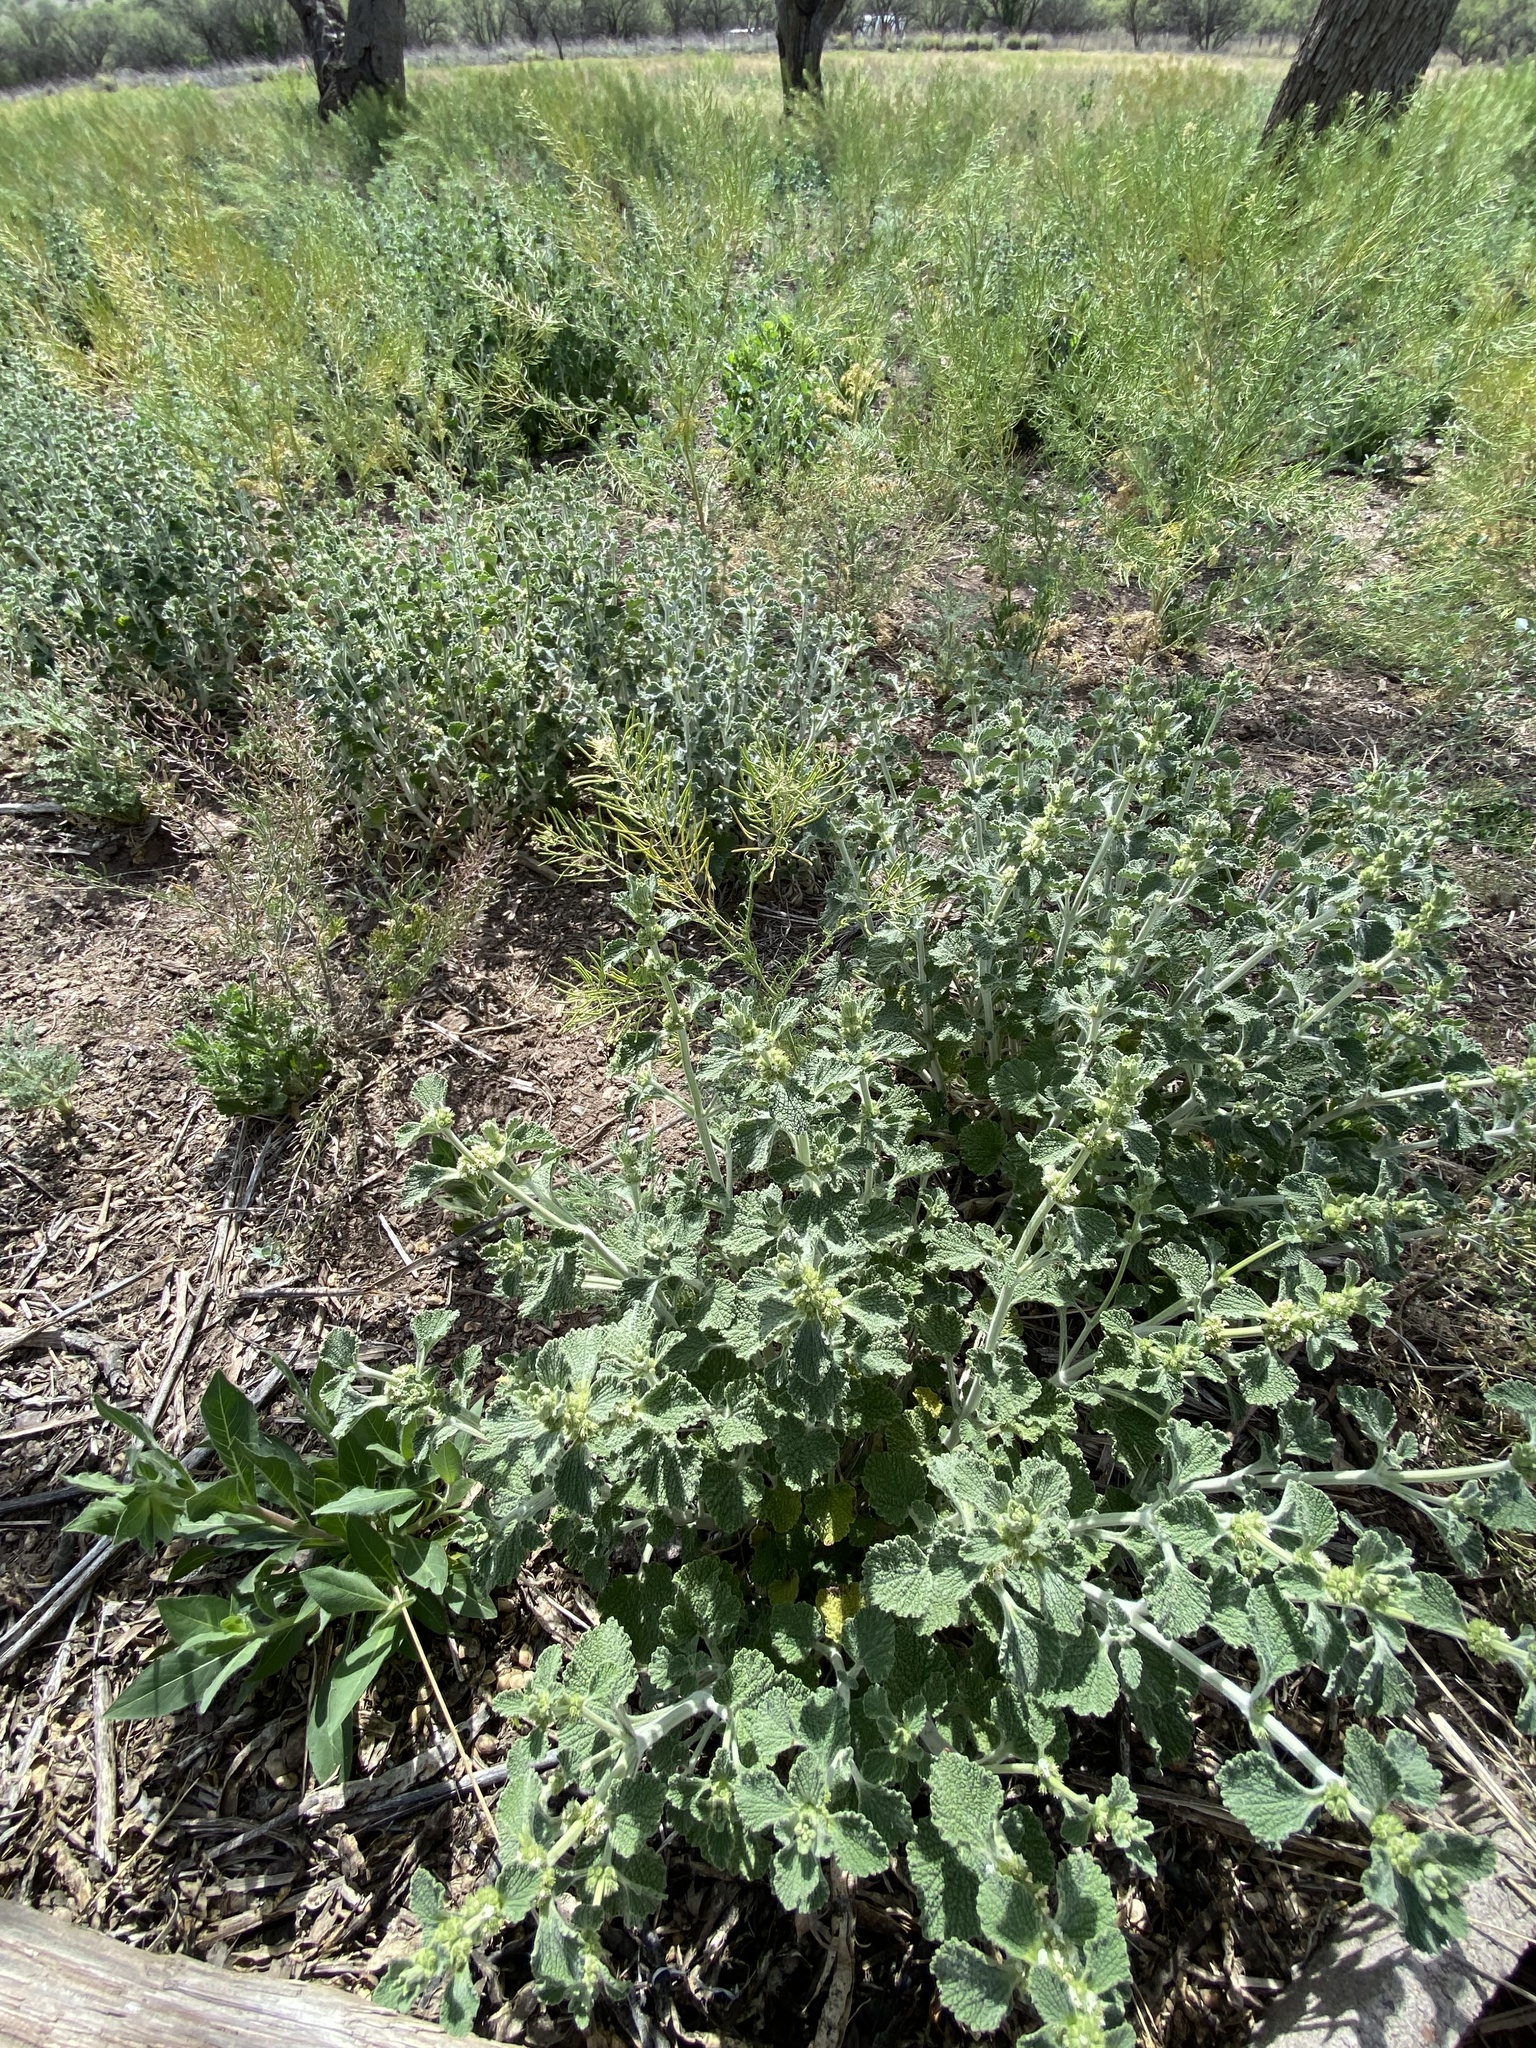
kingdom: Plantae
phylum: Tracheophyta
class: Magnoliopsida
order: Lamiales
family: Lamiaceae
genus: Marrubium
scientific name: Marrubium vulgare
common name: Horehound
